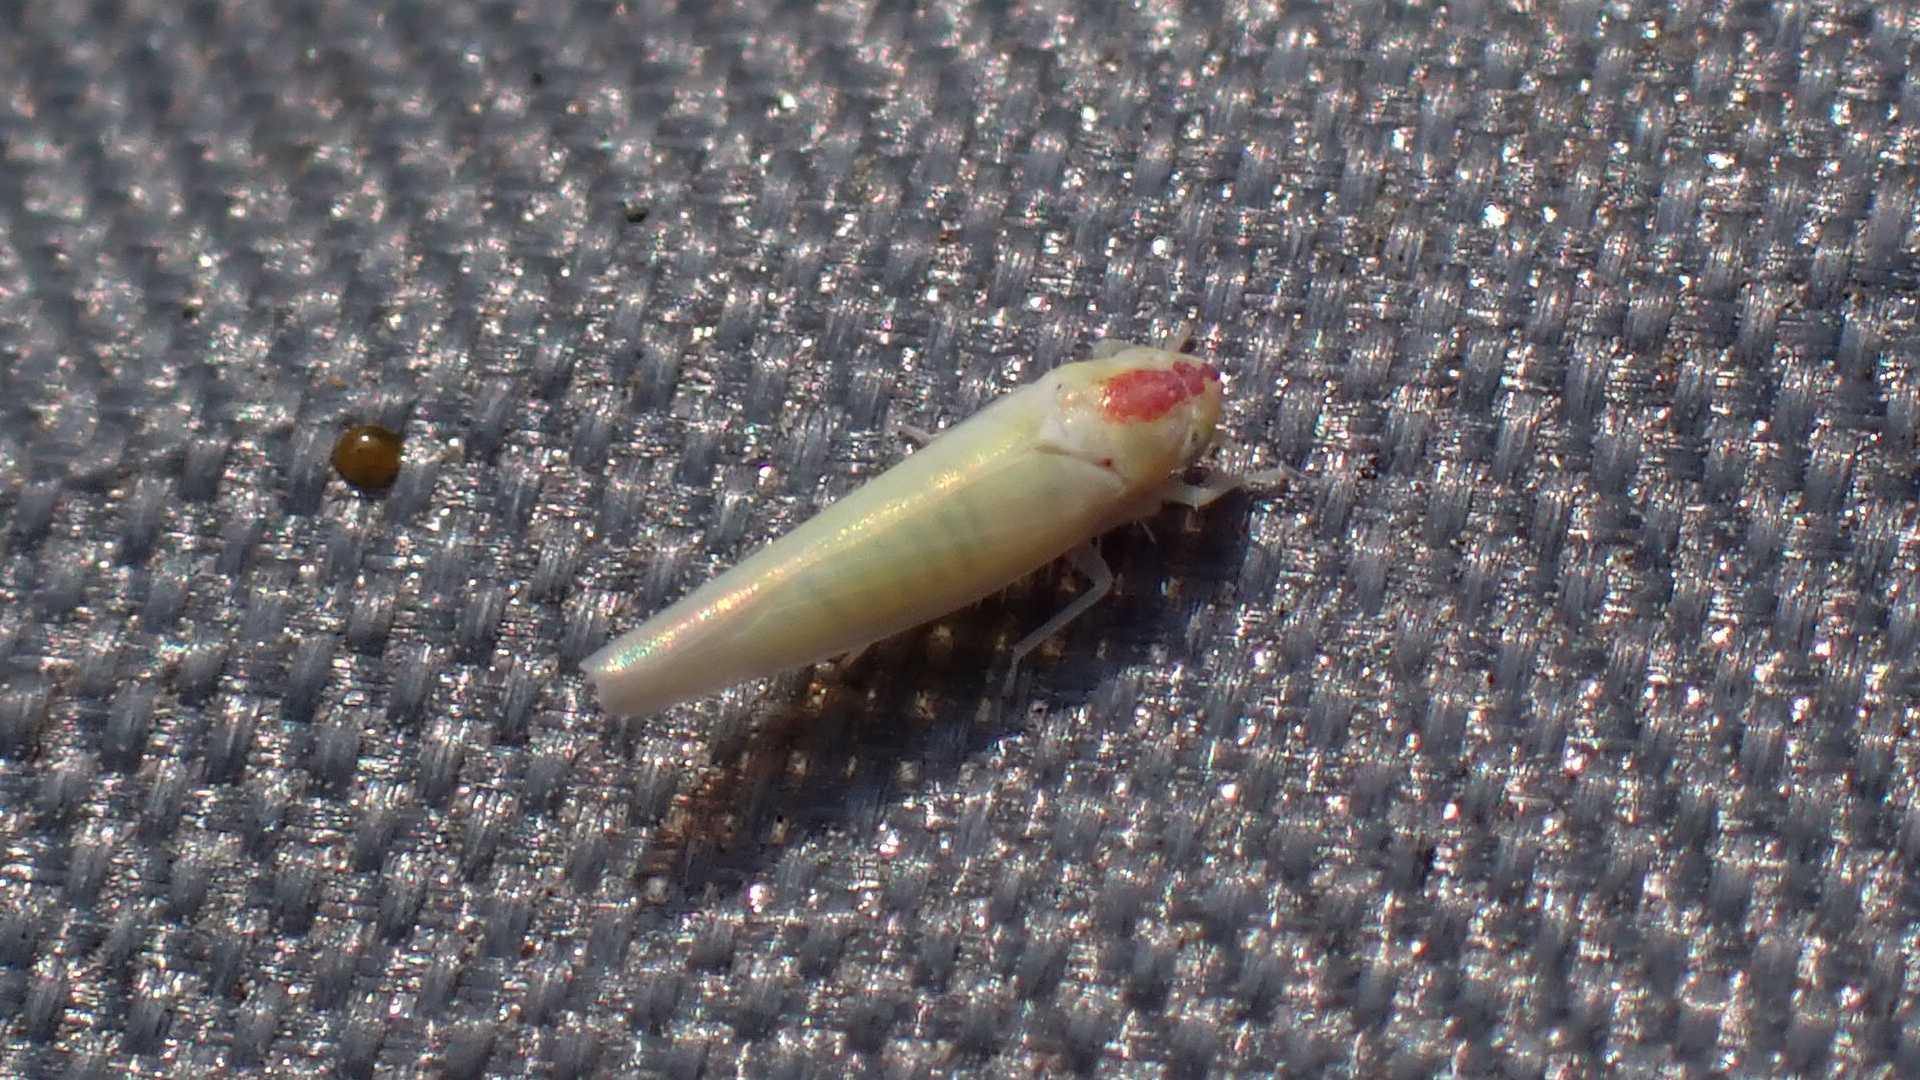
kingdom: Animalia
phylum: Arthropoda
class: Insecta
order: Hemiptera
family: Cicadellidae
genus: Zygina
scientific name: Zygina nivea
